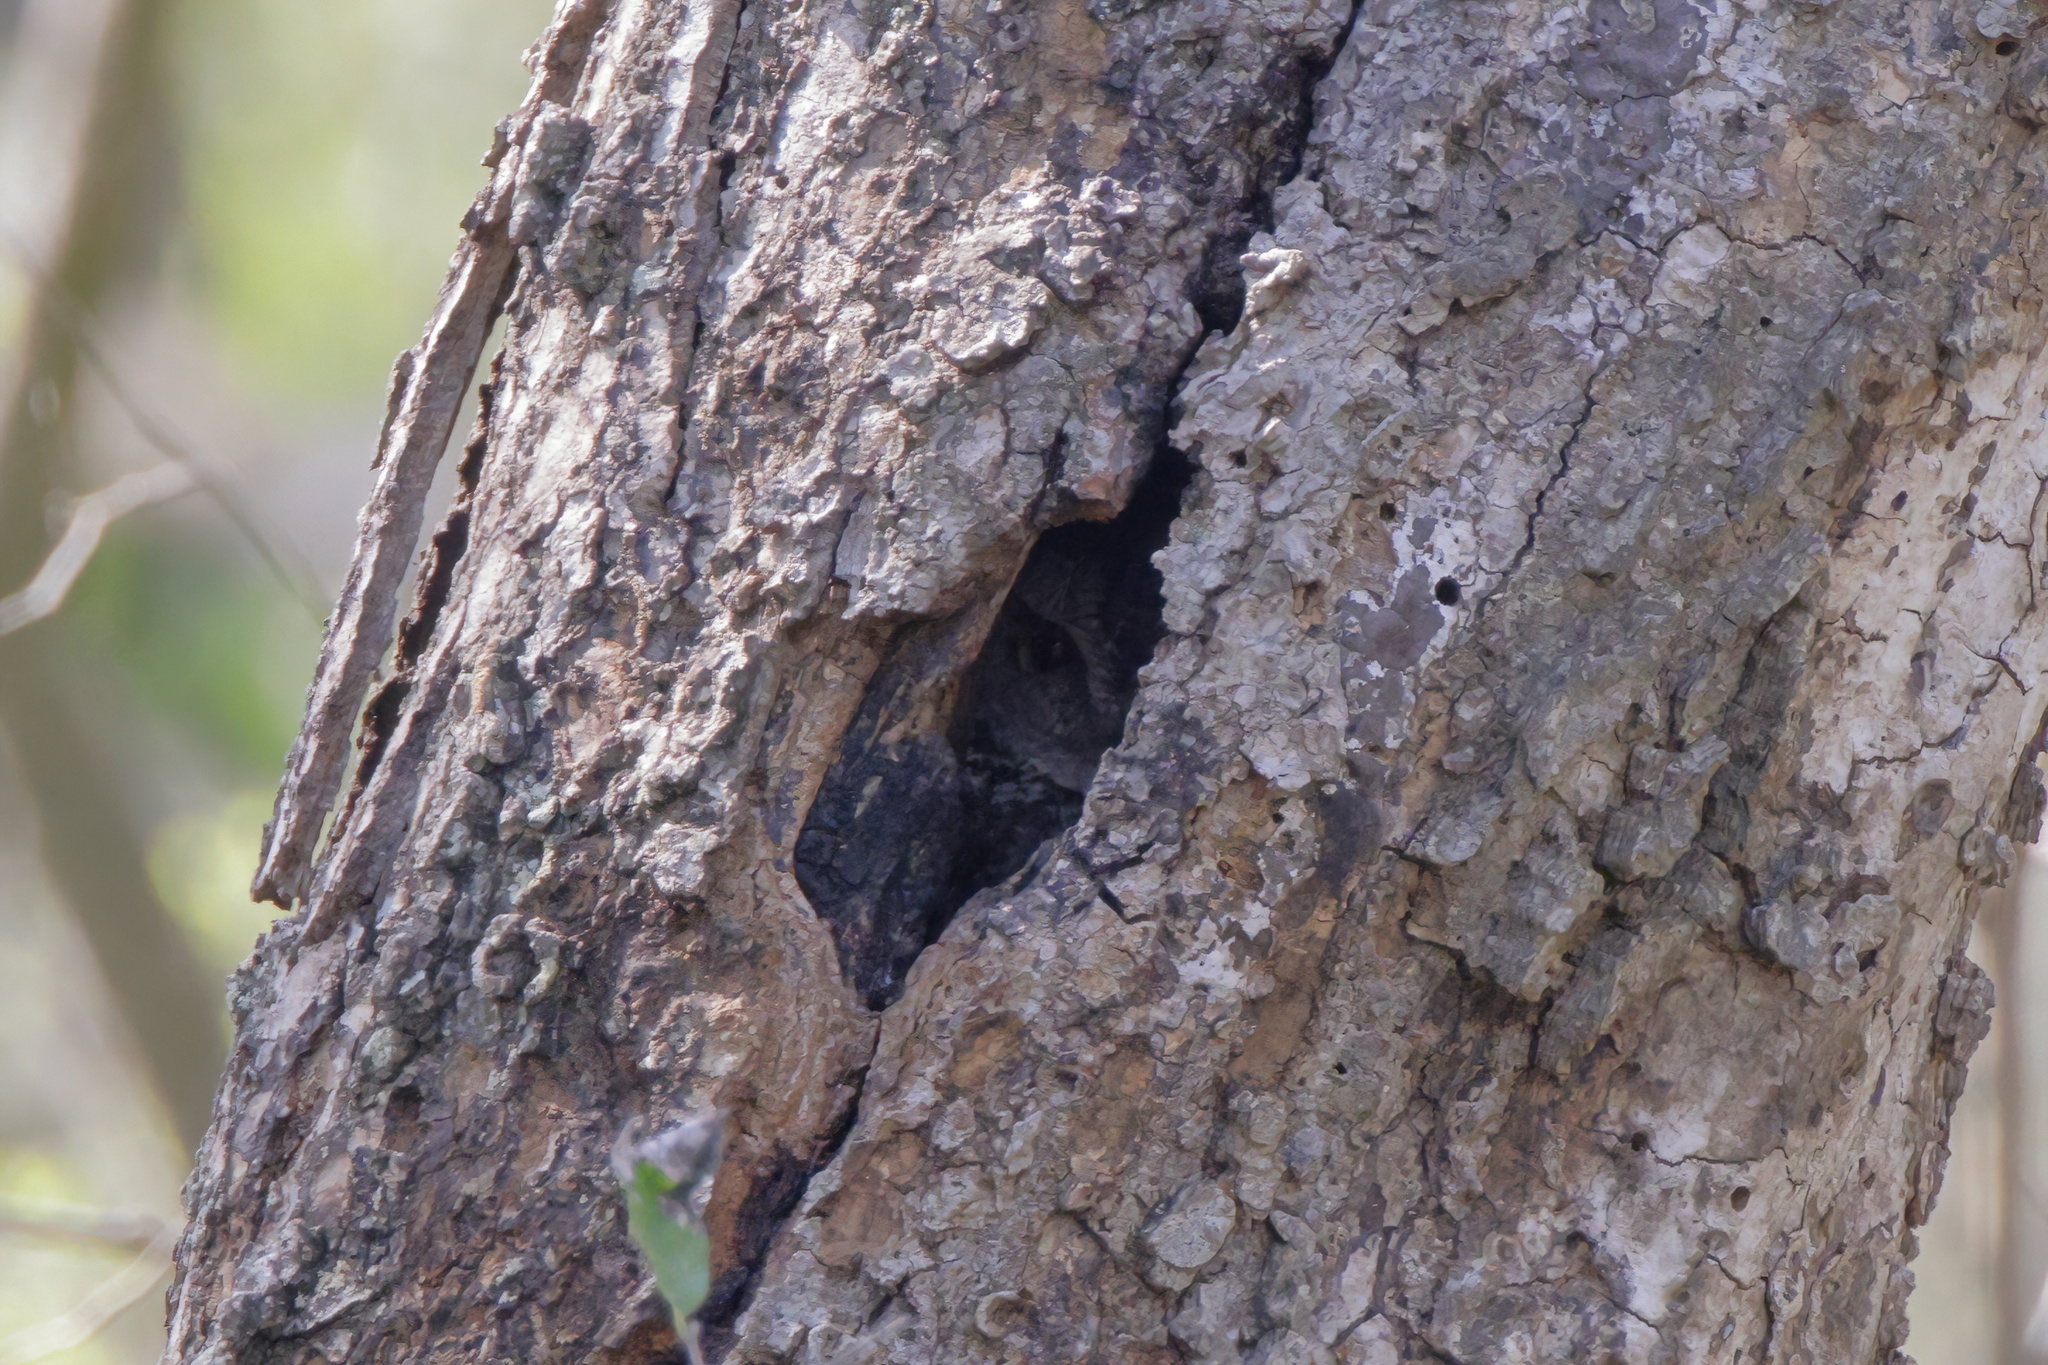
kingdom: Animalia
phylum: Chordata
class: Aves
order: Strigiformes
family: Strigidae
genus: Megascops
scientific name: Megascops asio
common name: Eastern screech-owl
